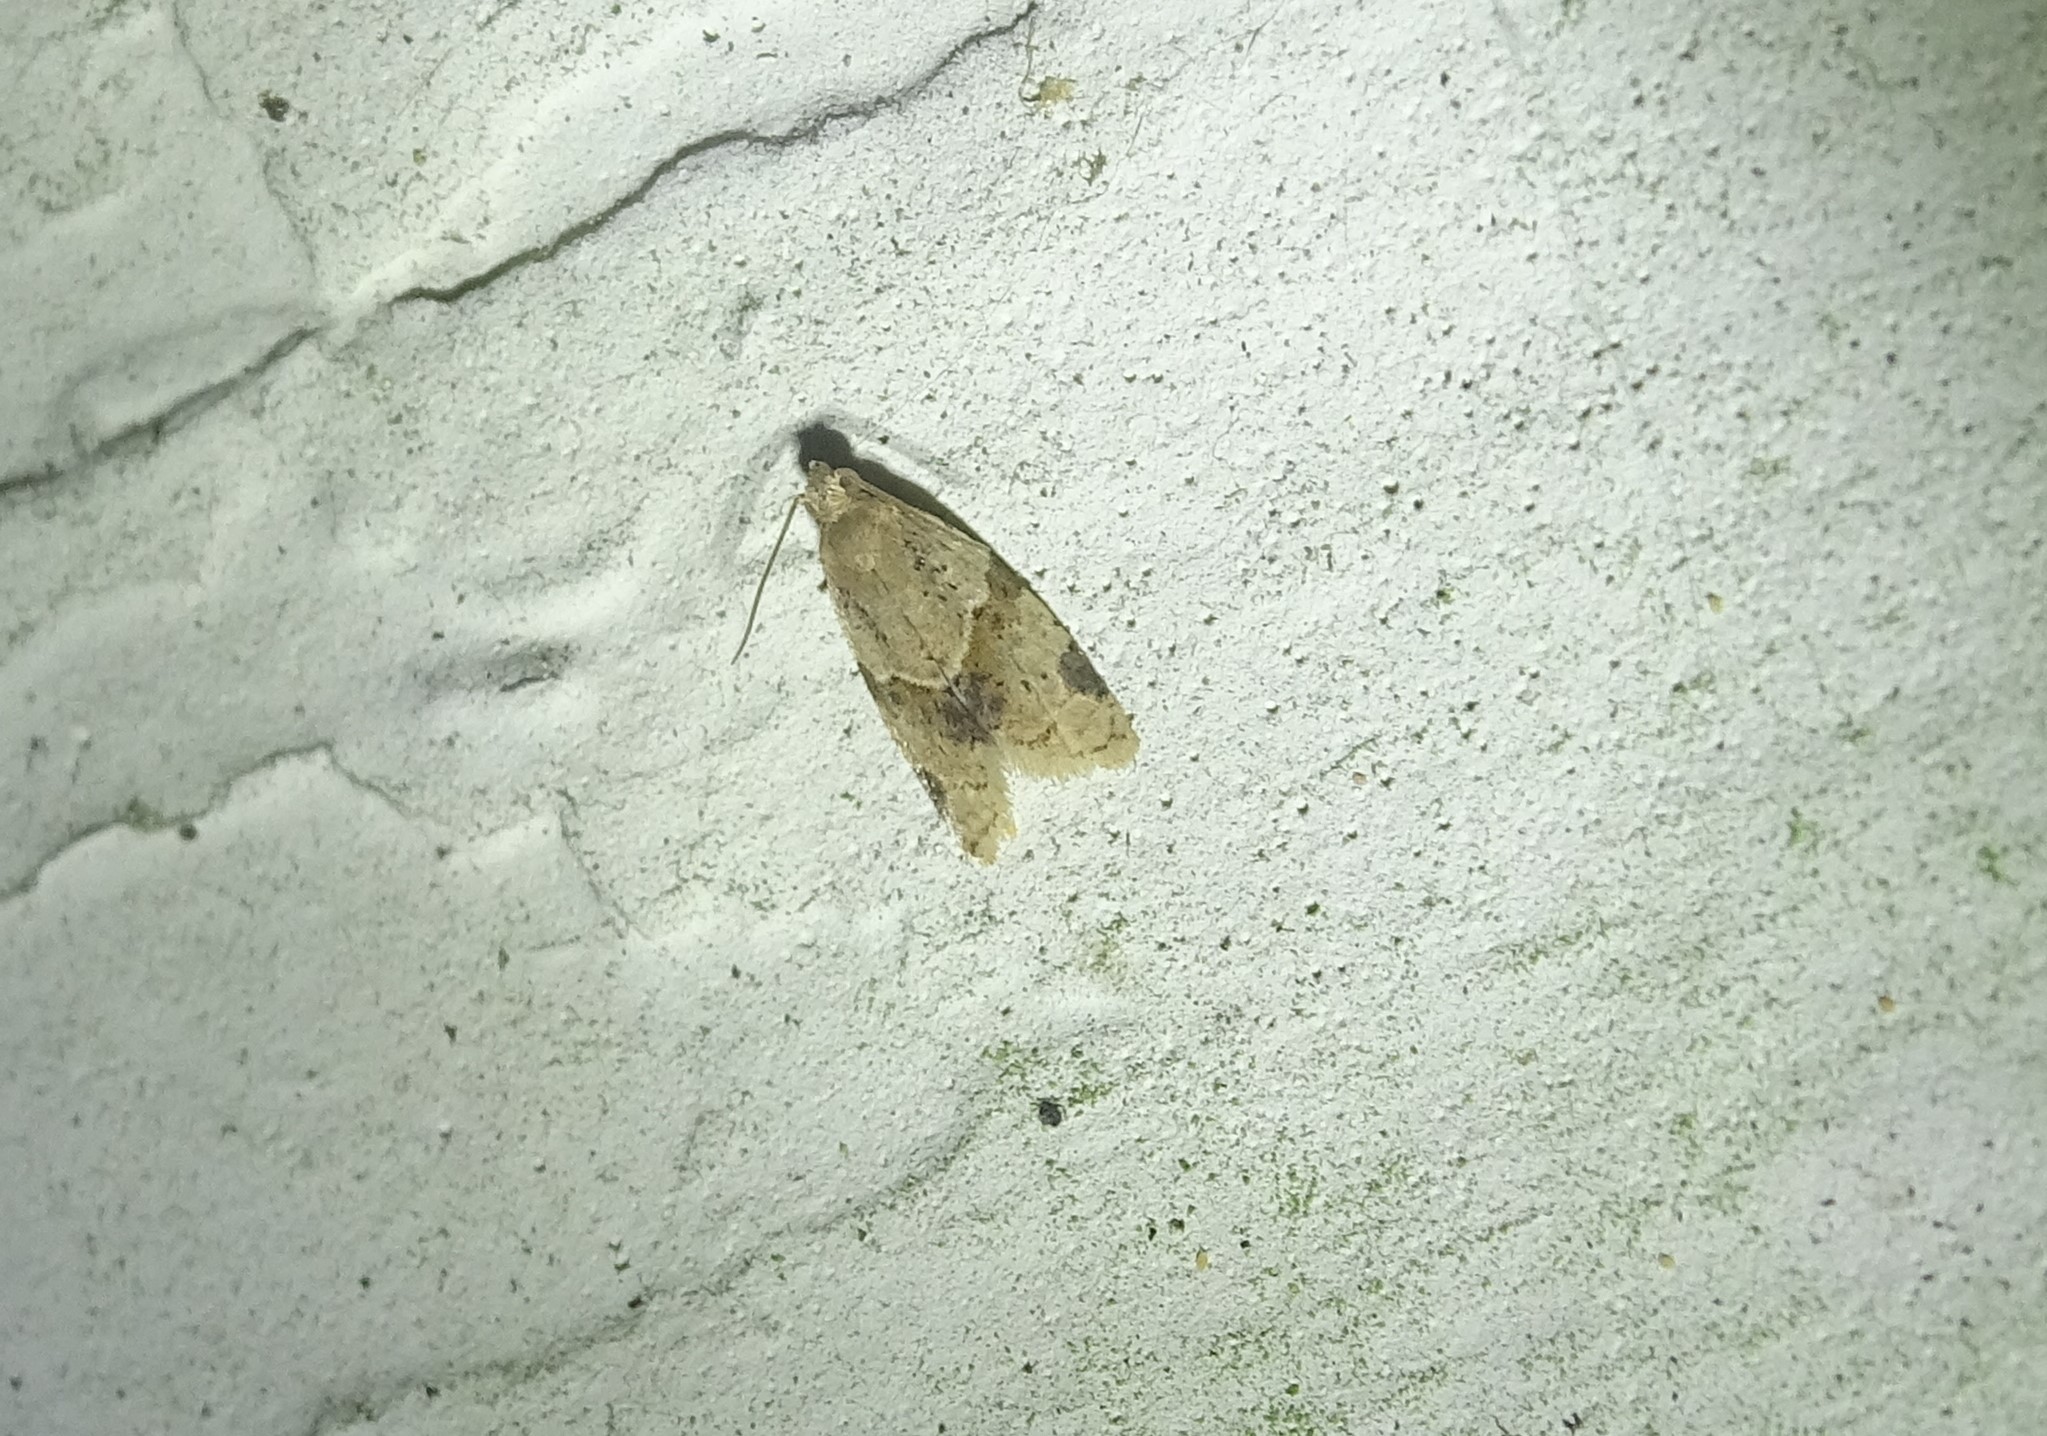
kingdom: Animalia
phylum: Arthropoda
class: Insecta
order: Lepidoptera
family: Tortricidae
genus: Clepsis
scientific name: Clepsis peritana
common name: Garden tortrix
